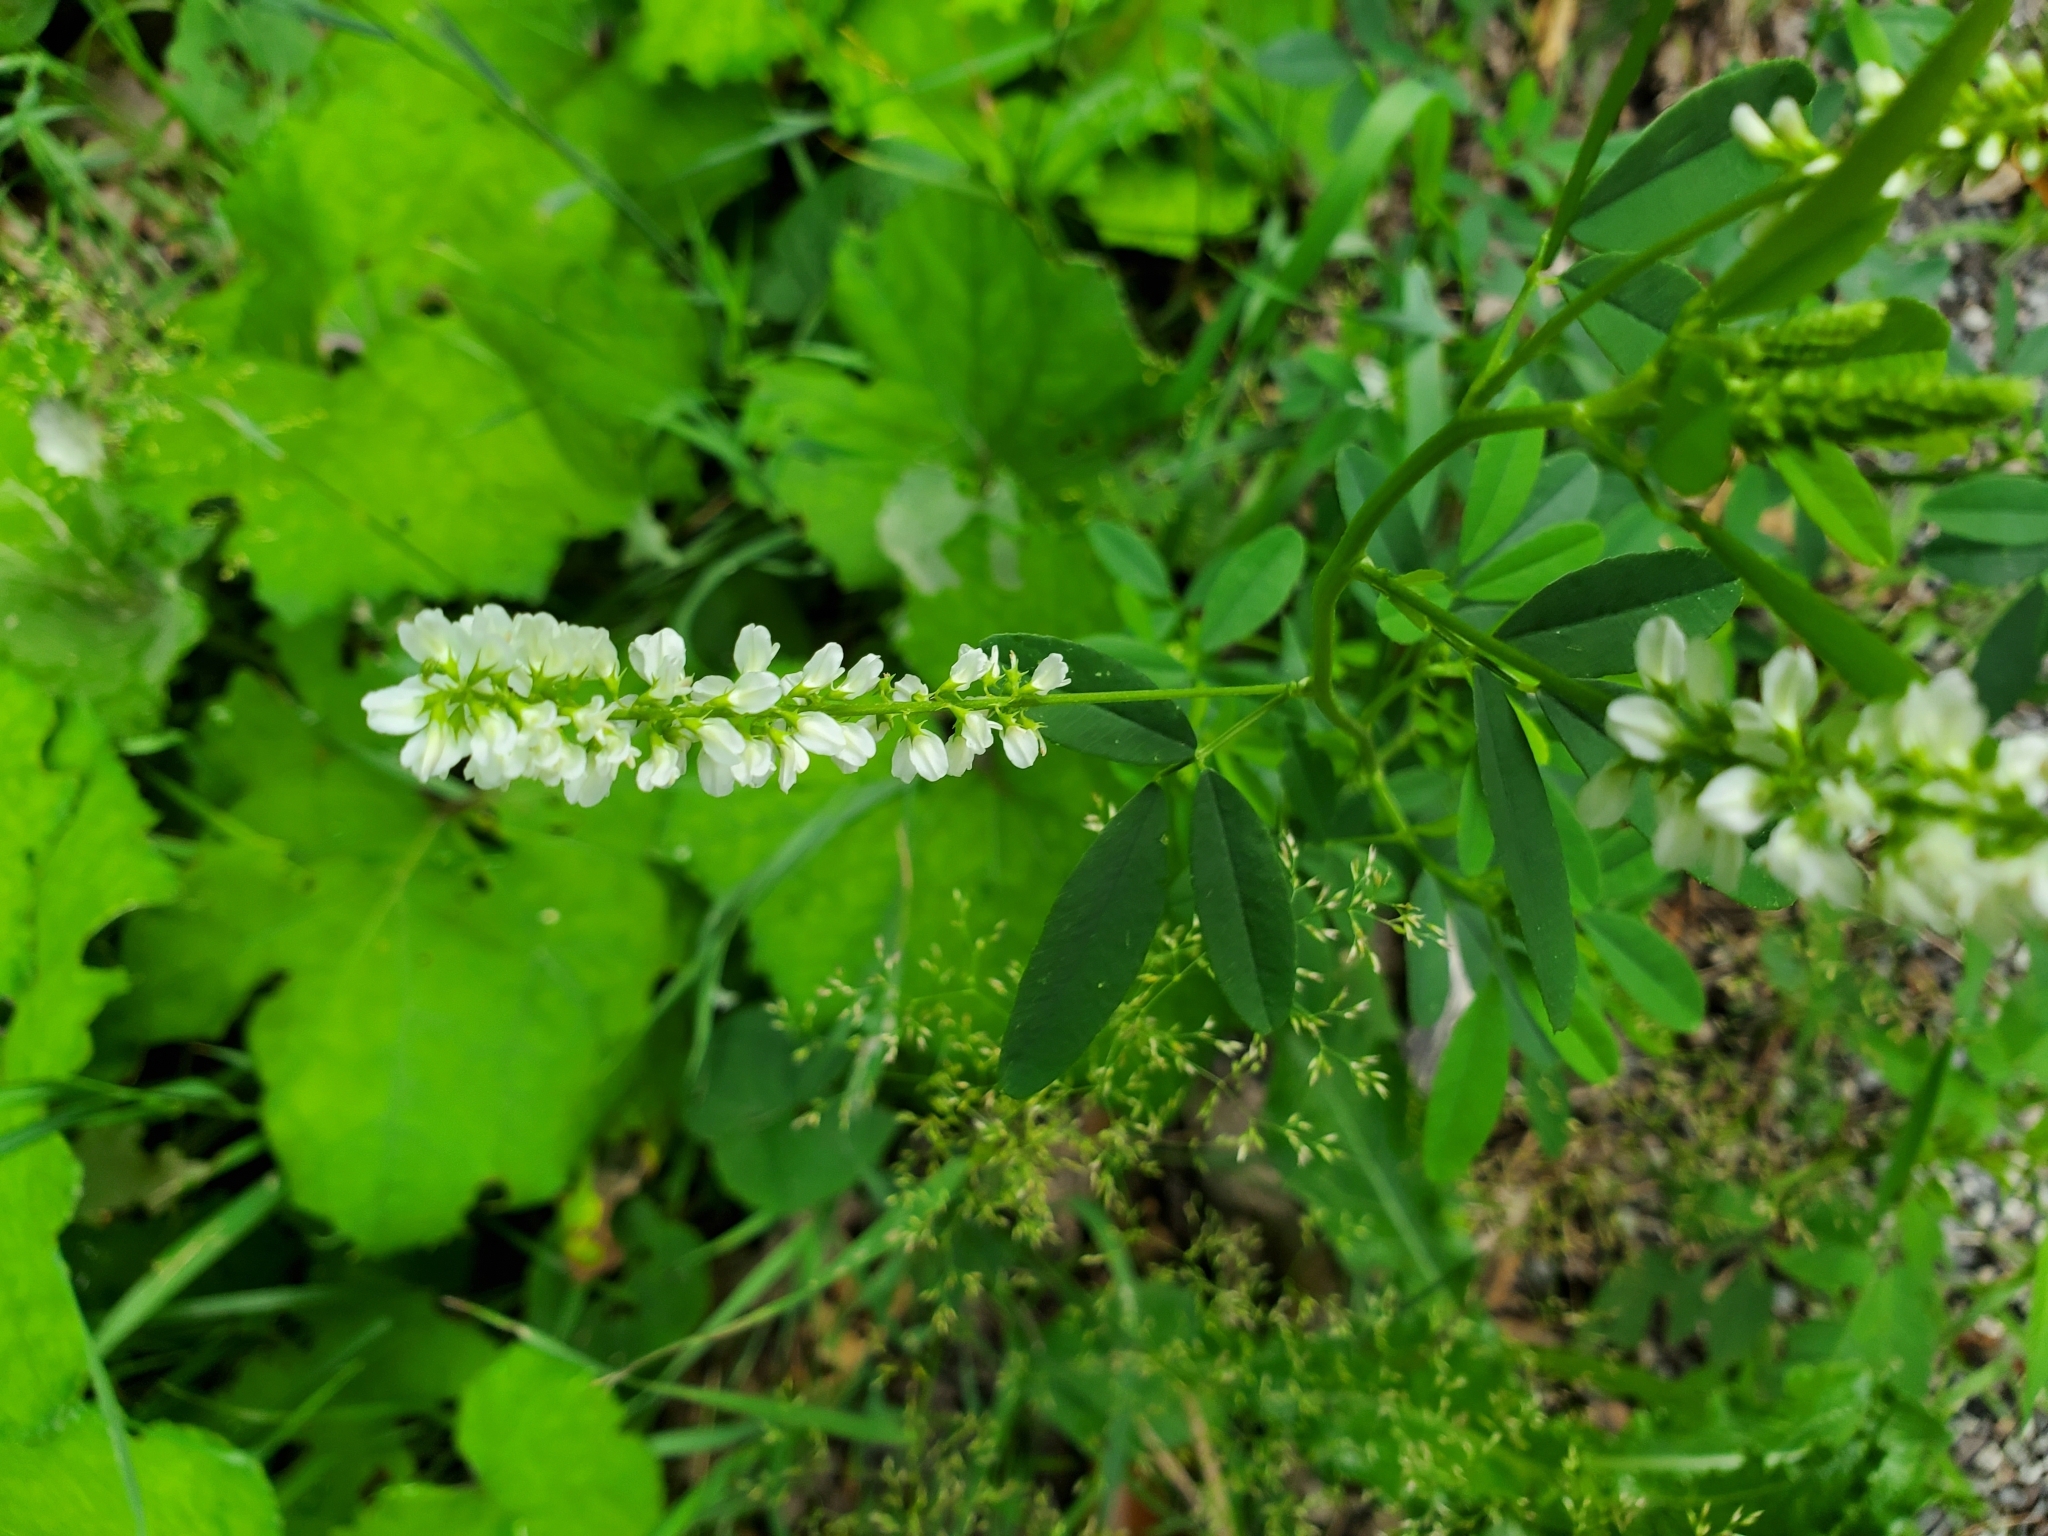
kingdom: Plantae
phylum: Tracheophyta
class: Magnoliopsida
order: Fabales
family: Fabaceae
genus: Melilotus
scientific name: Melilotus albus
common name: White melilot
